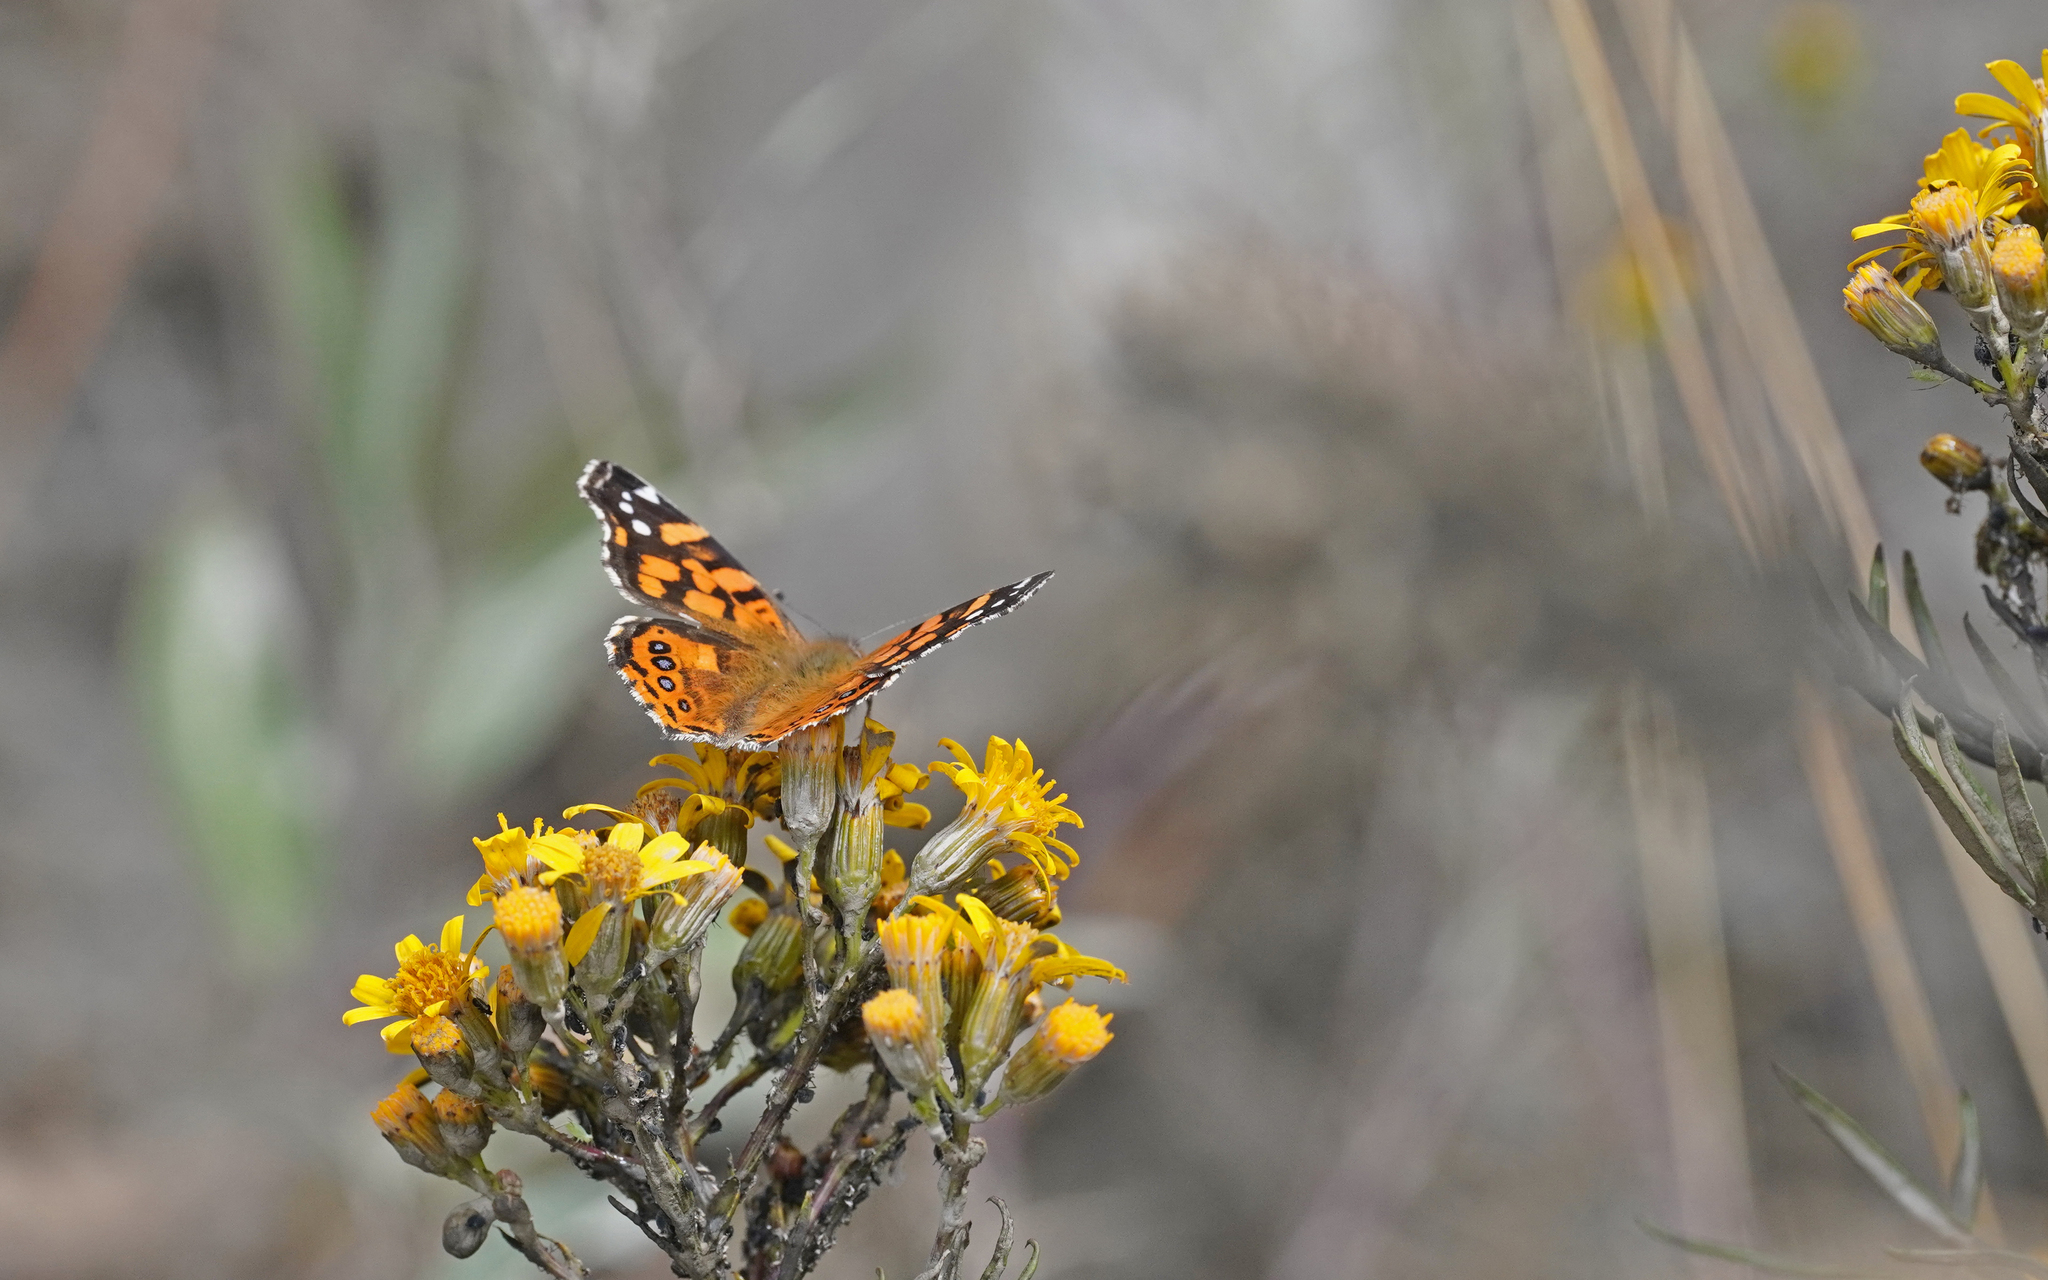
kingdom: Animalia
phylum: Arthropoda
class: Insecta
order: Lepidoptera
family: Nymphalidae
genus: Vanessa
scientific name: Vanessa carye
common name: Subtropical lady
